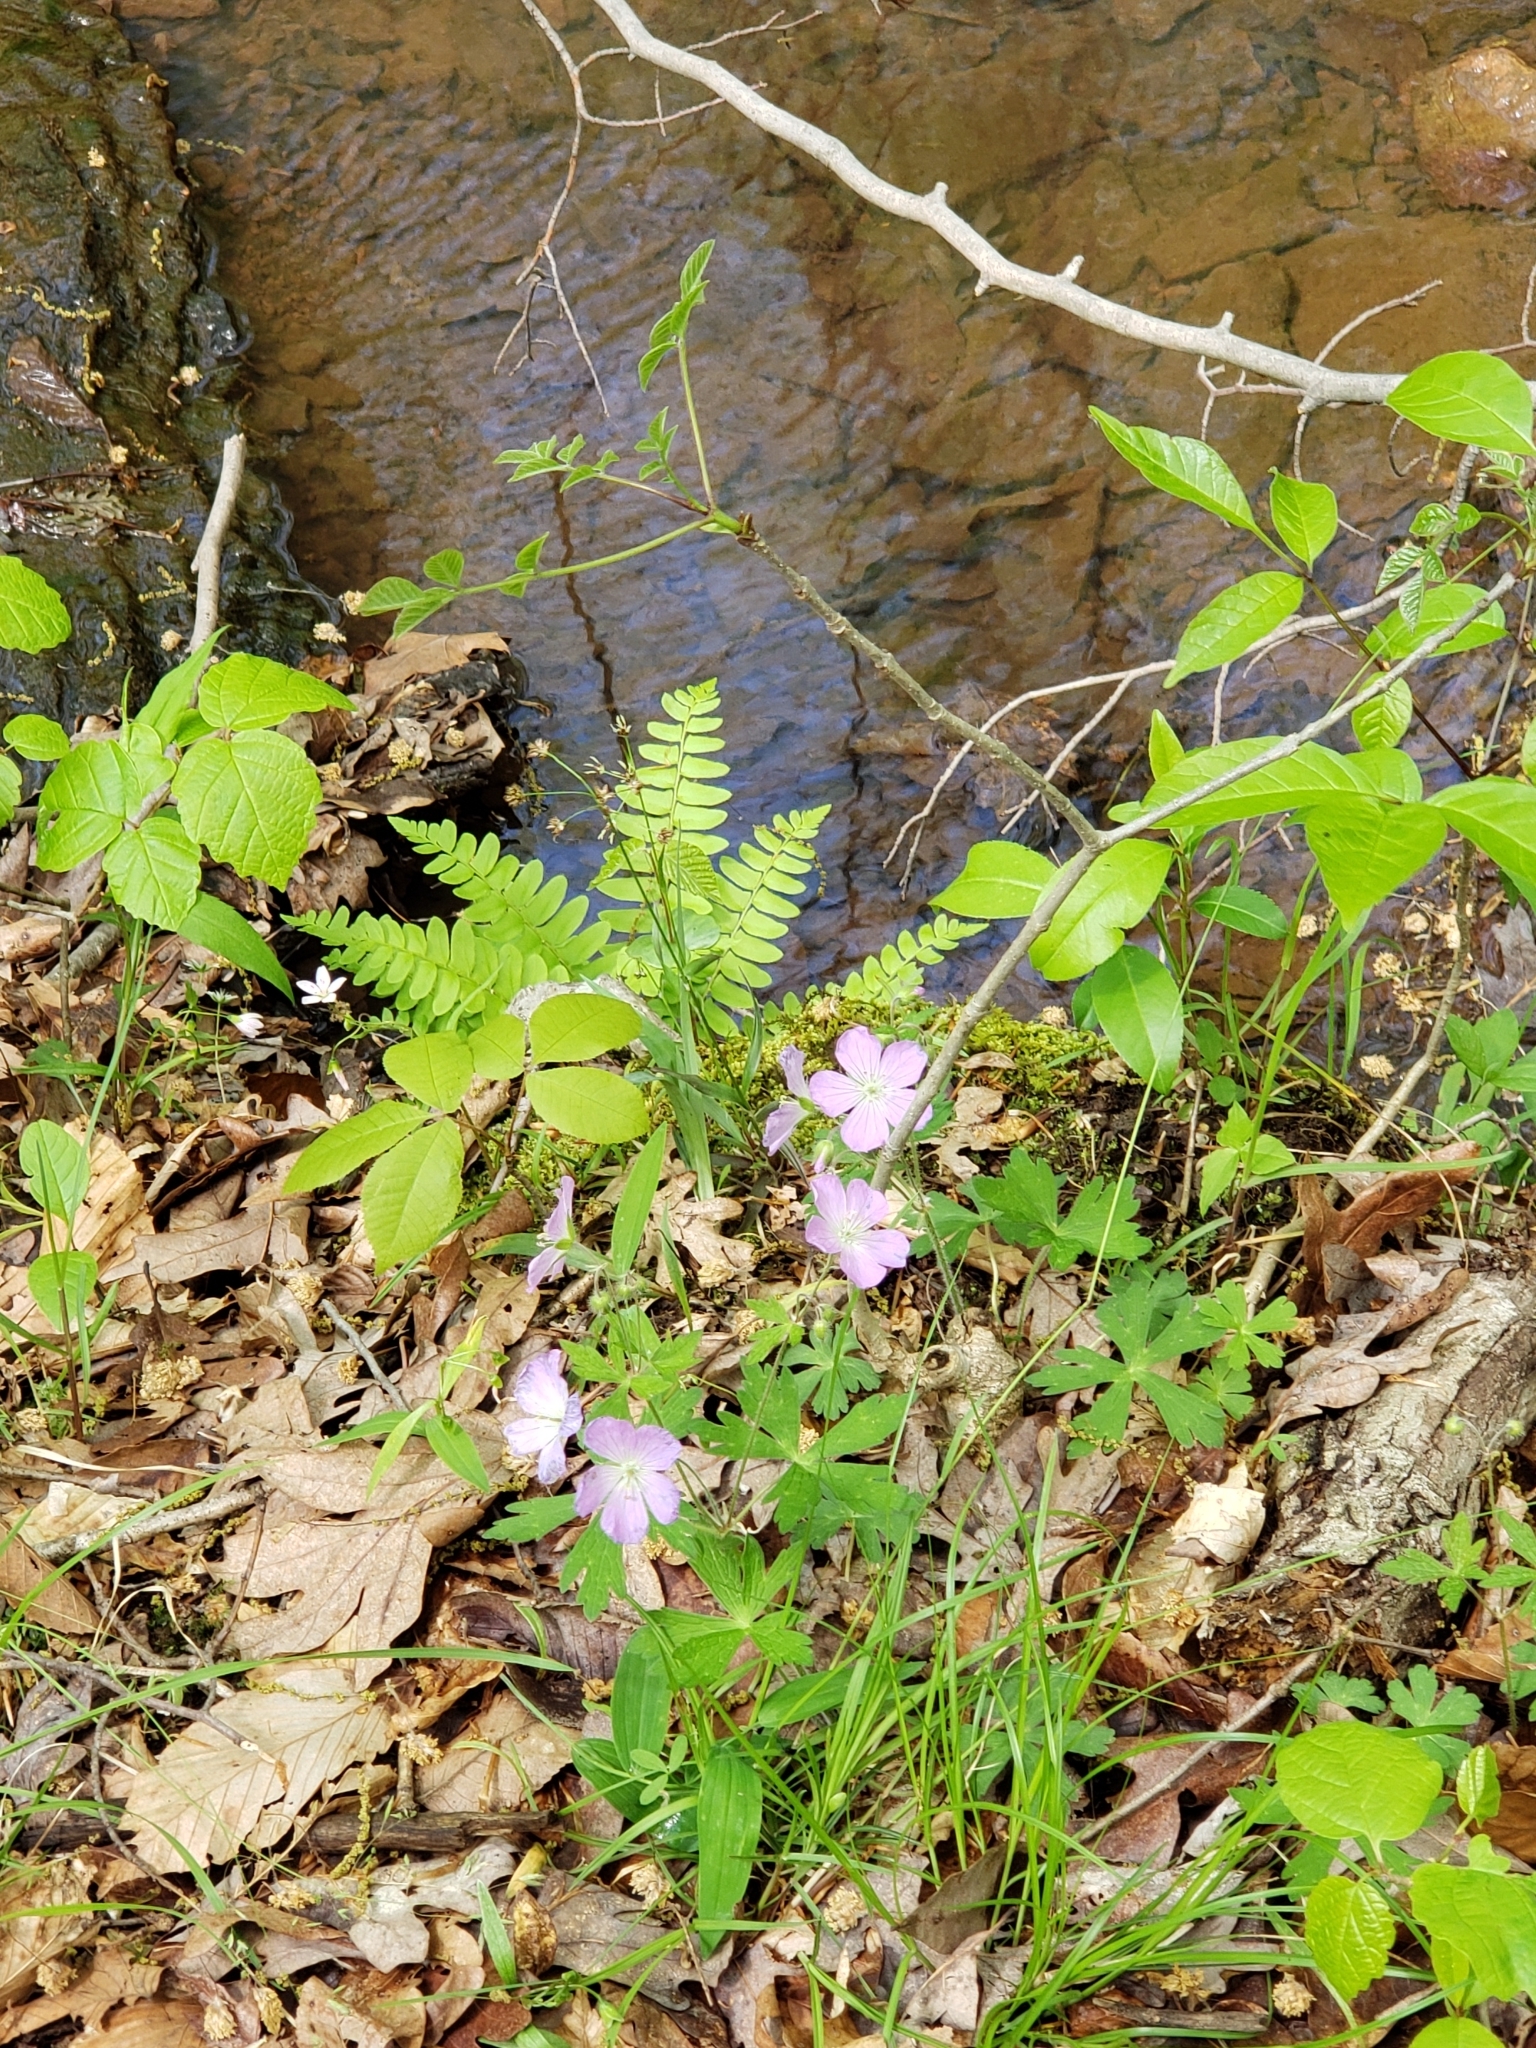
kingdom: Plantae
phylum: Tracheophyta
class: Magnoliopsida
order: Geraniales
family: Geraniaceae
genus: Geranium
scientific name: Geranium maculatum
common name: Spotted geranium
